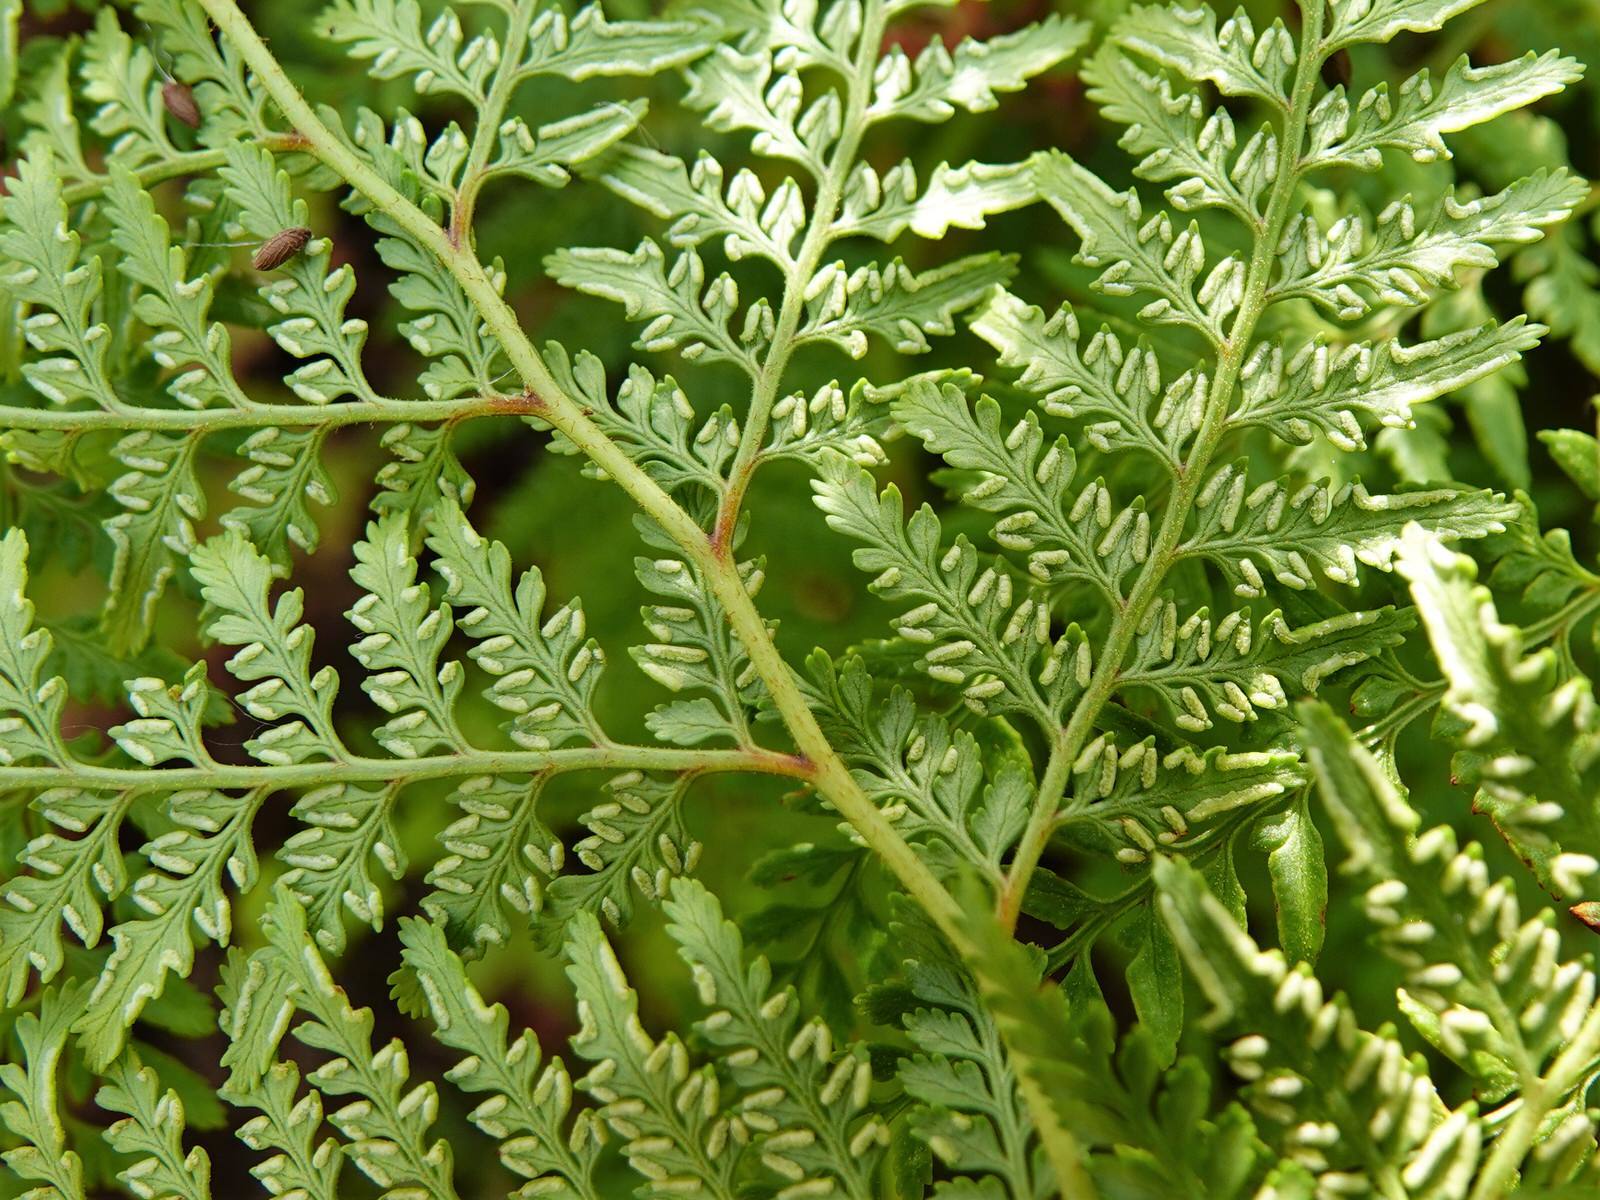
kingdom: Plantae
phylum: Tracheophyta
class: Polypodiopsida
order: Polypodiales
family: Dennstaedtiaceae
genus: Paesia
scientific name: Paesia scaberula
